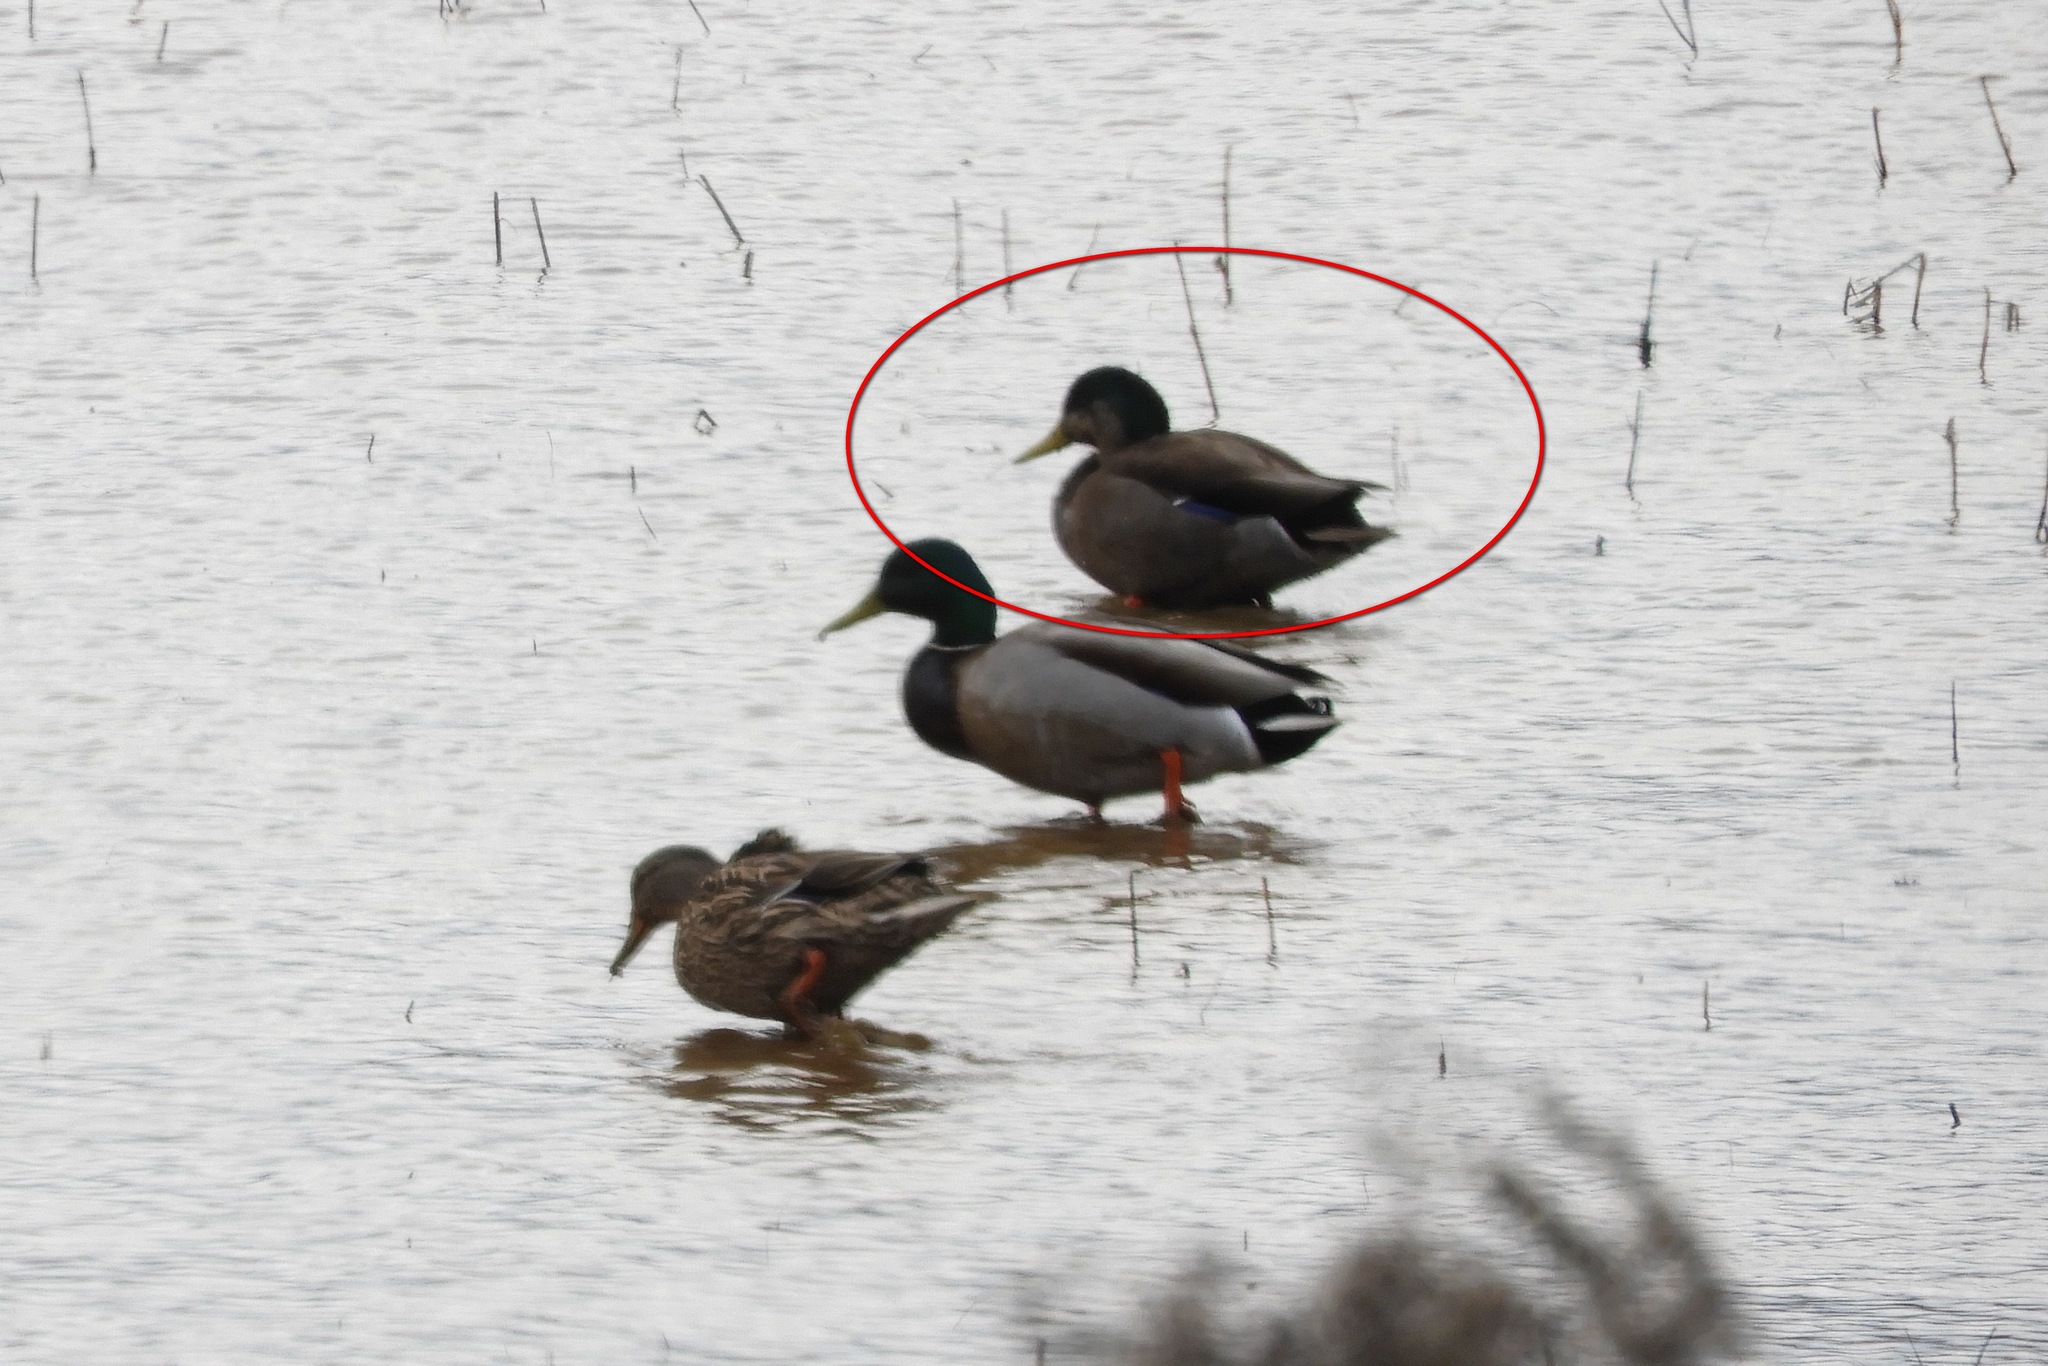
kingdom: Animalia
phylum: Chordata
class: Aves
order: Anseriformes
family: Anatidae
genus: Anas
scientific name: Anas
